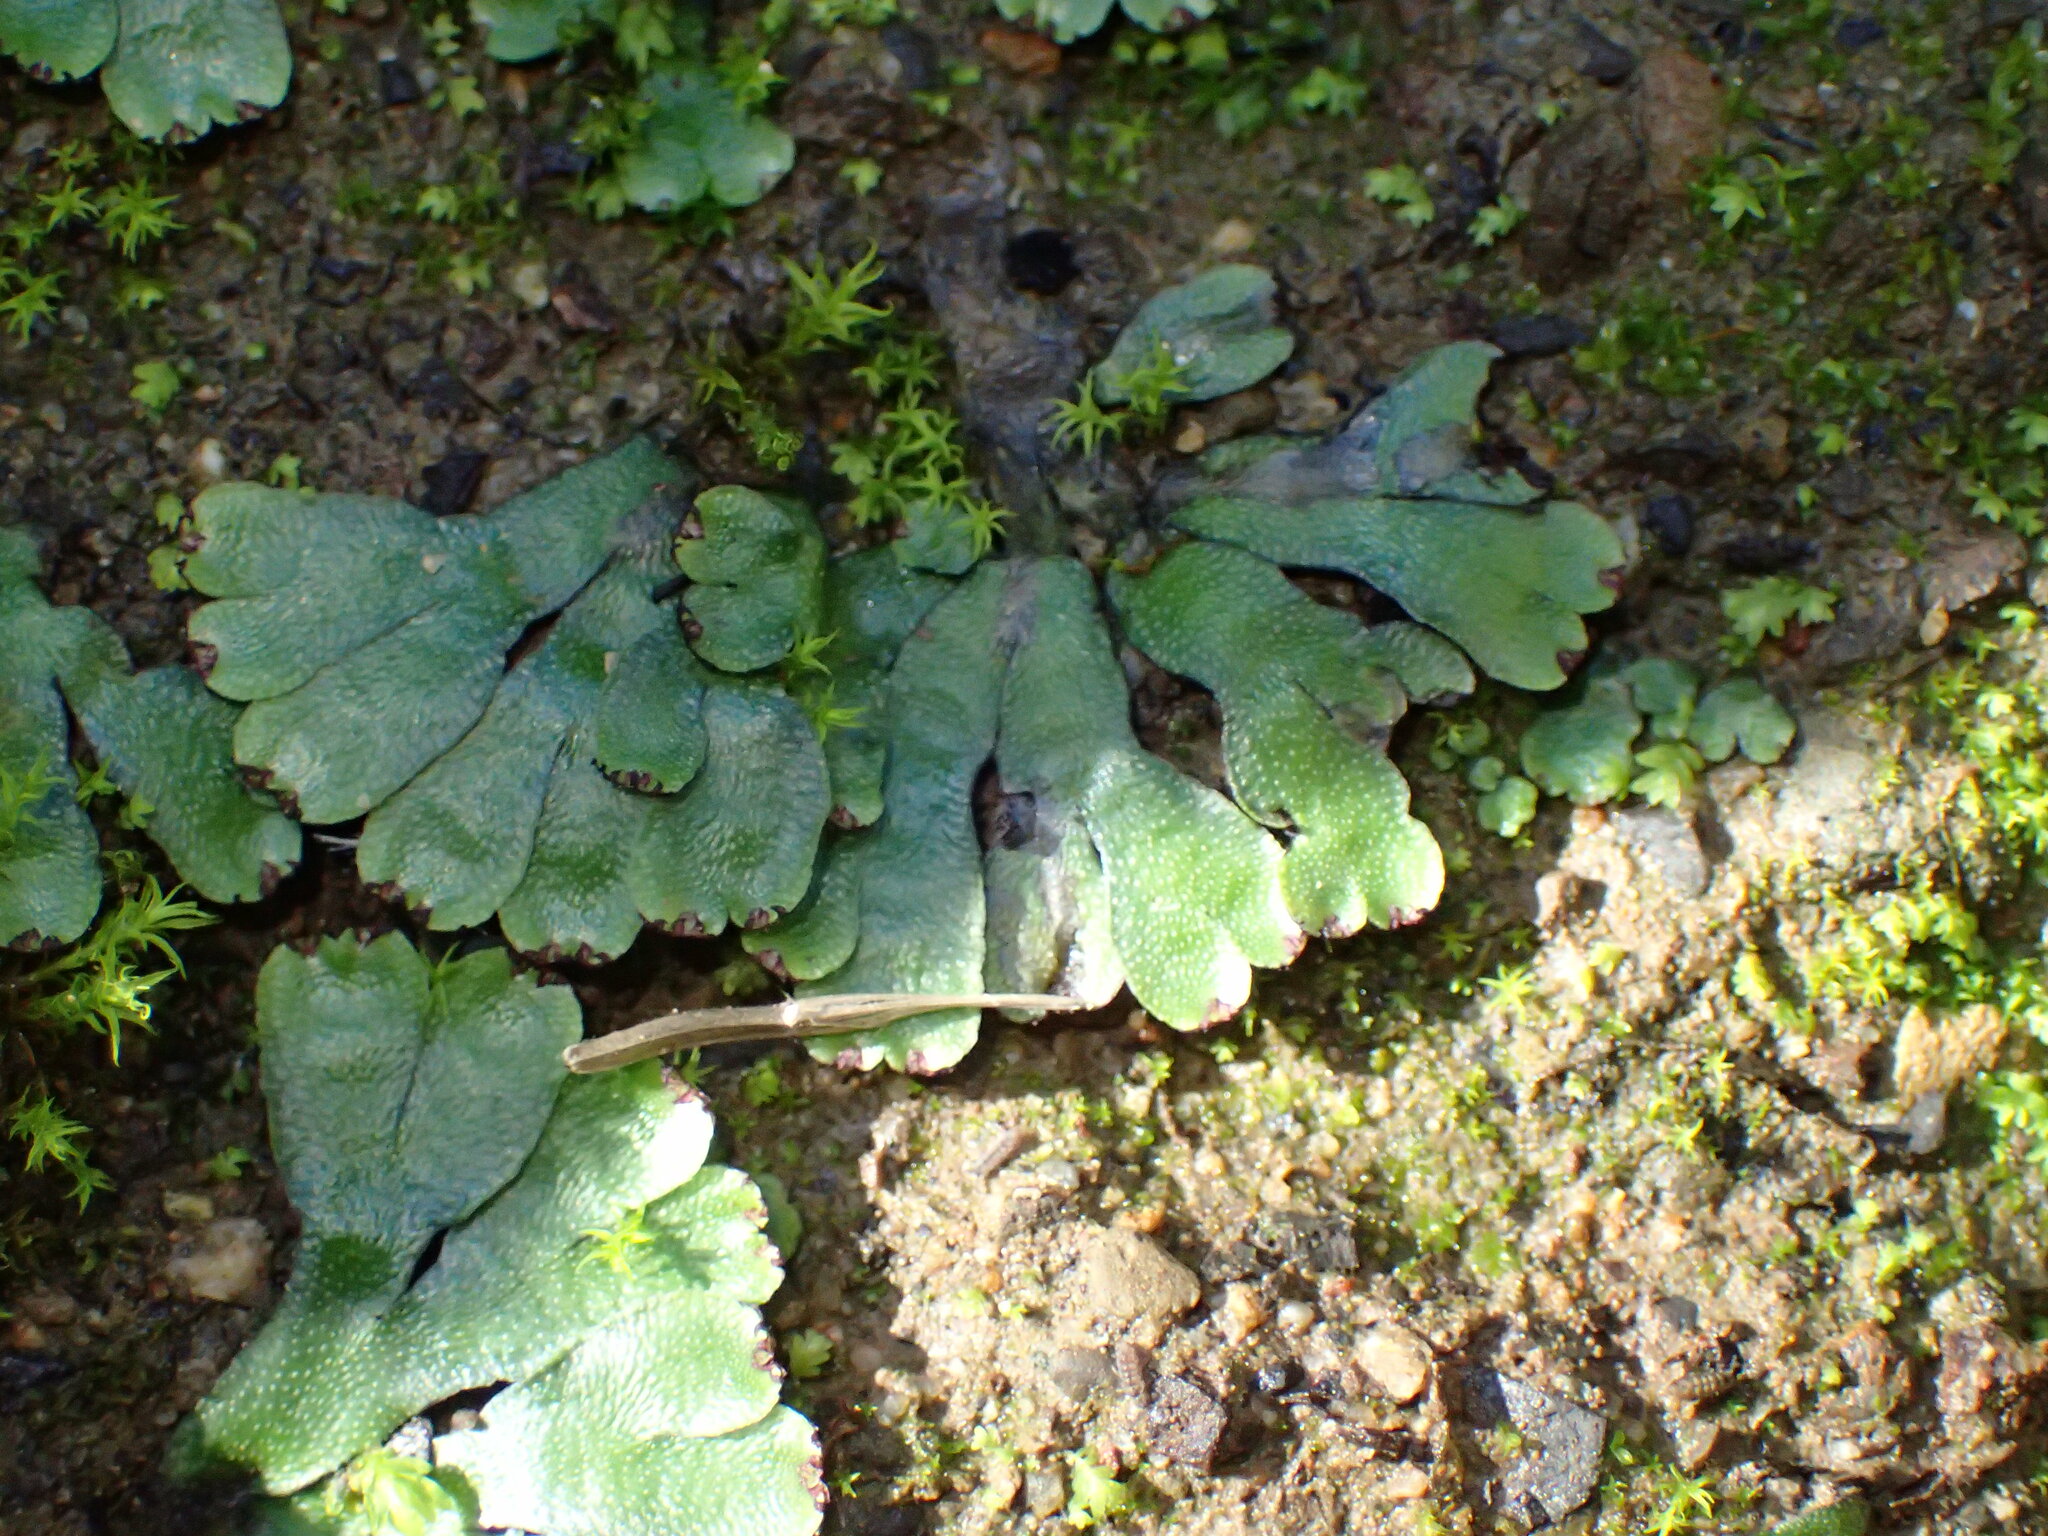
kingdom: Plantae
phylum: Marchantiophyta
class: Marchantiopsida
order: Marchantiales
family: Targioniaceae
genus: Targionia
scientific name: Targionia hypophylla
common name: Orobus-seed liverwort
